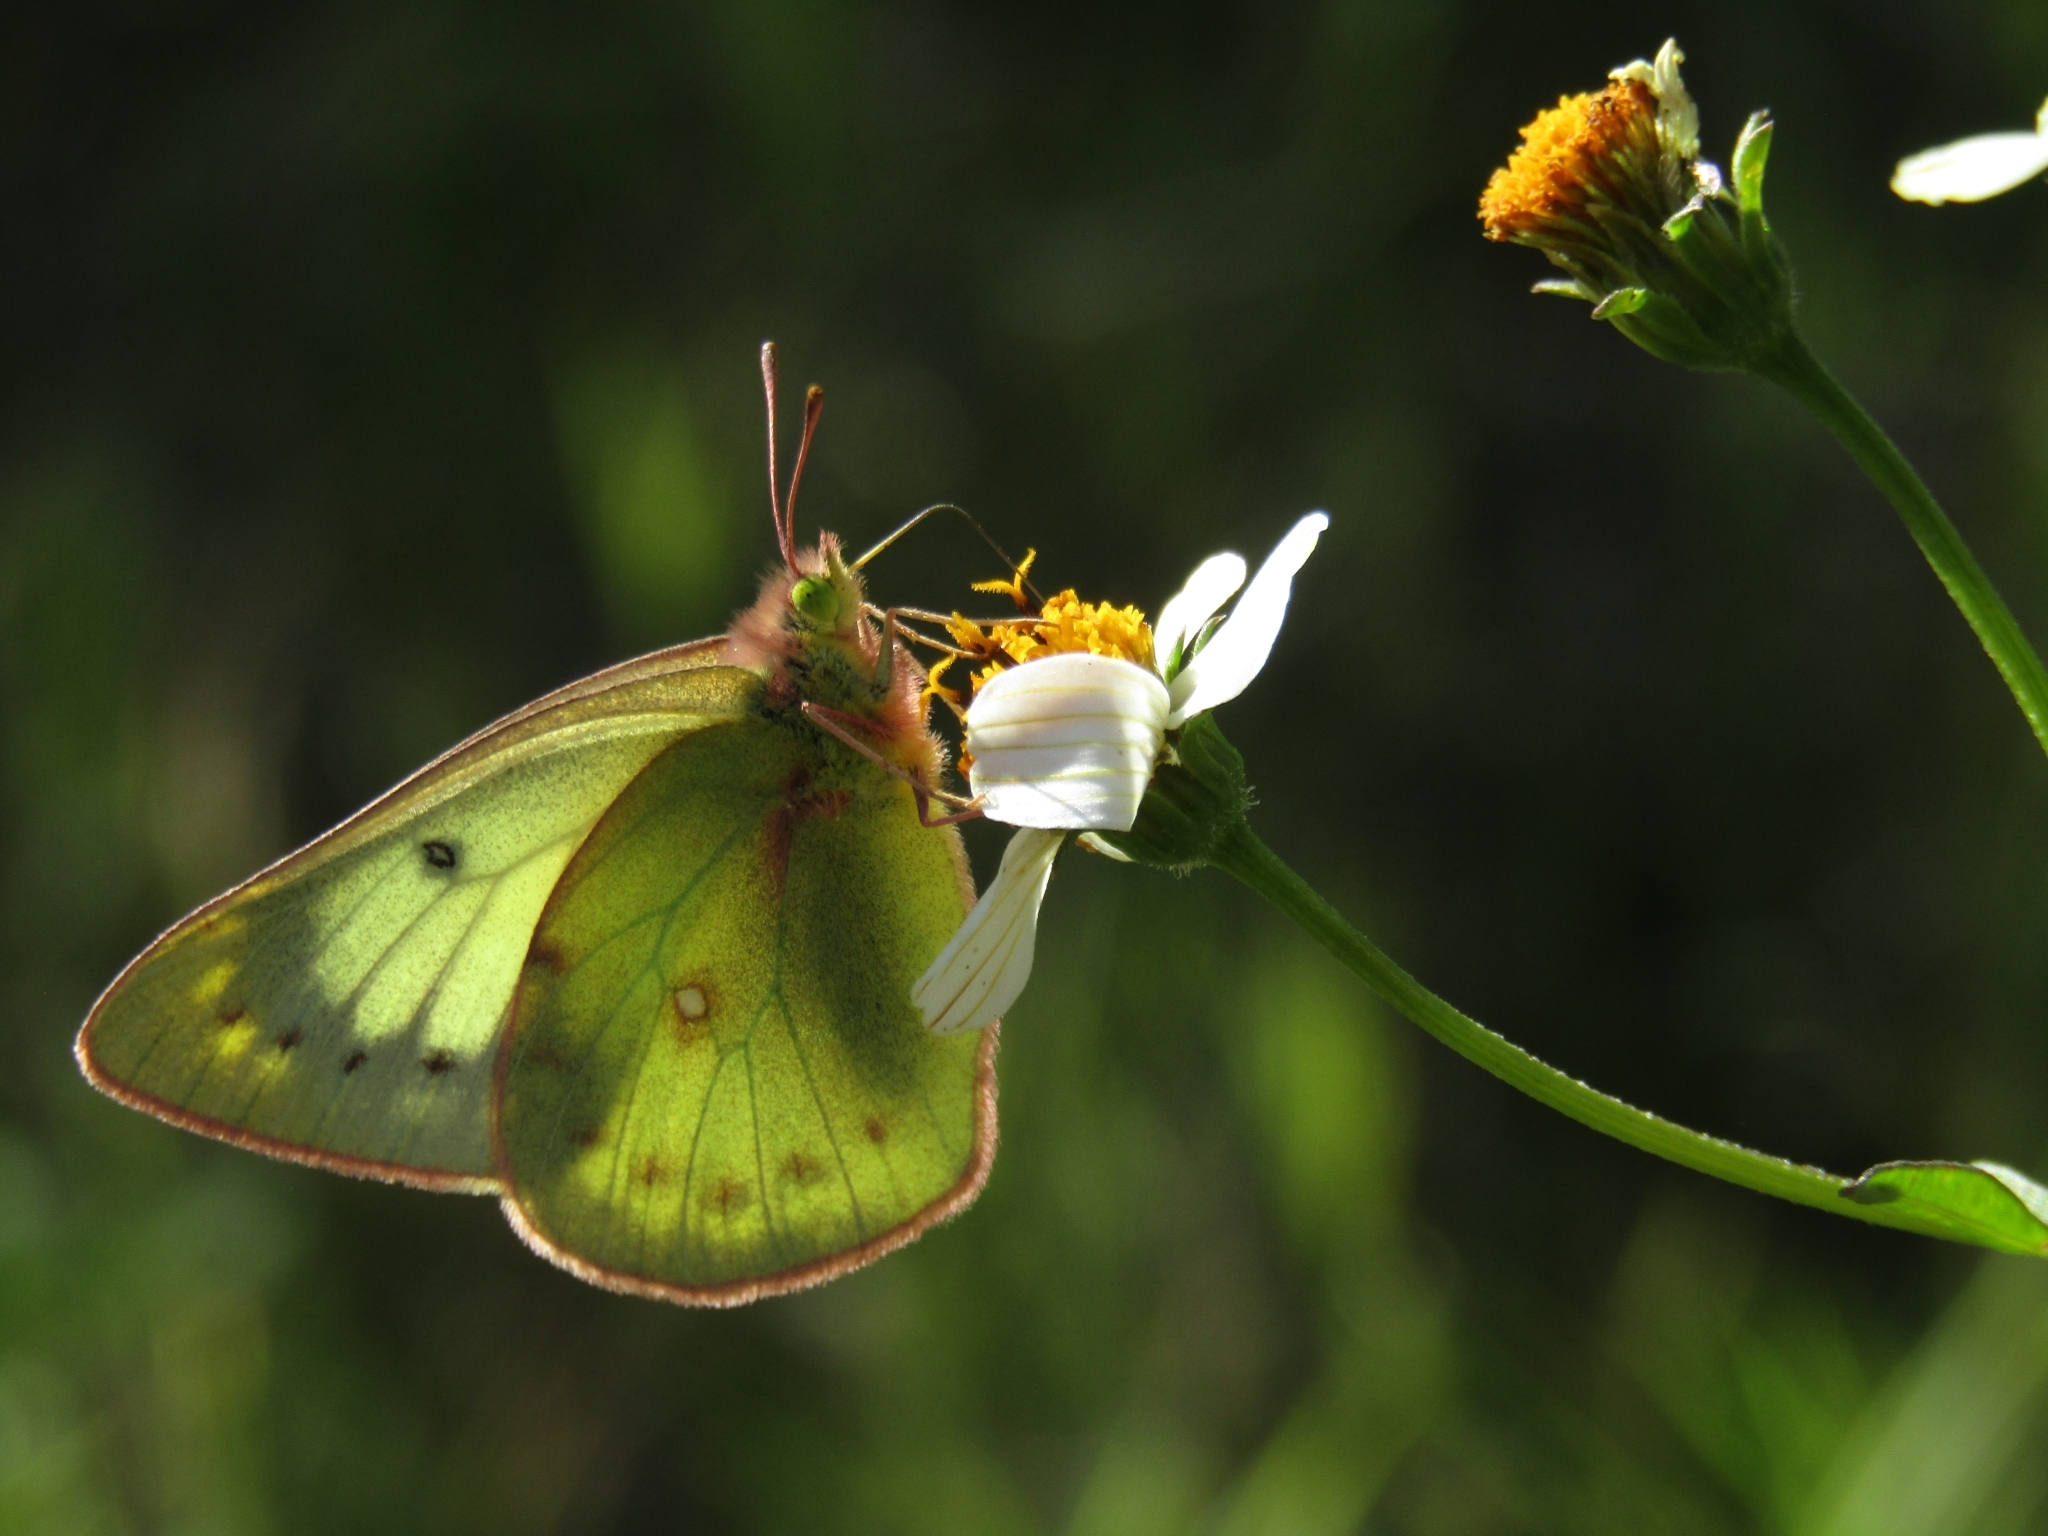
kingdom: Animalia
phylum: Arthropoda
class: Insecta
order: Lepidoptera
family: Pieridae
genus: Colias
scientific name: Colias lesbia
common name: Lesbia clouded yellow
